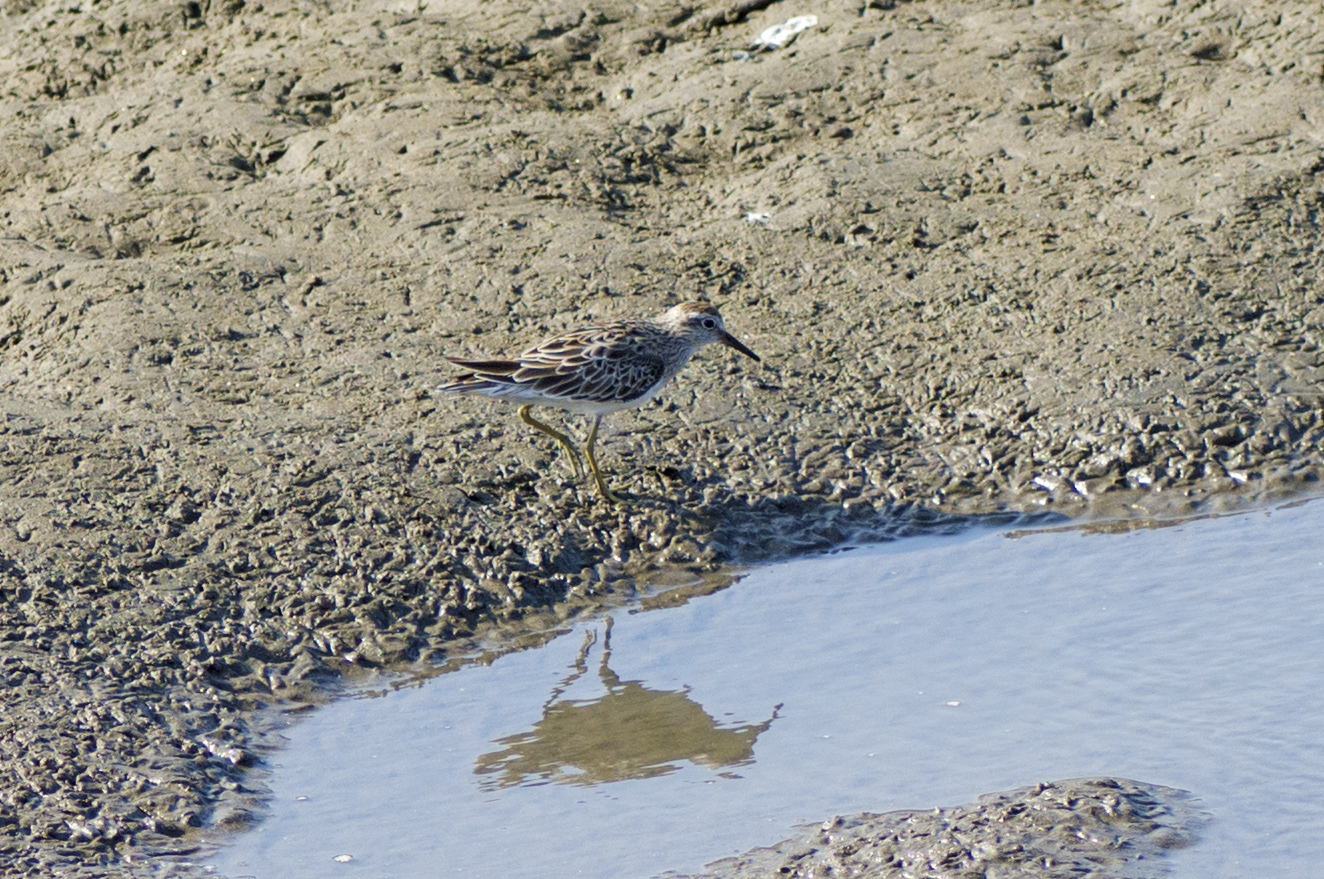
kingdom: Animalia
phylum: Chordata
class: Aves
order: Charadriiformes
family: Scolopacidae
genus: Calidris
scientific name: Calidris acuminata
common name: Sharp-tailed sandpiper
